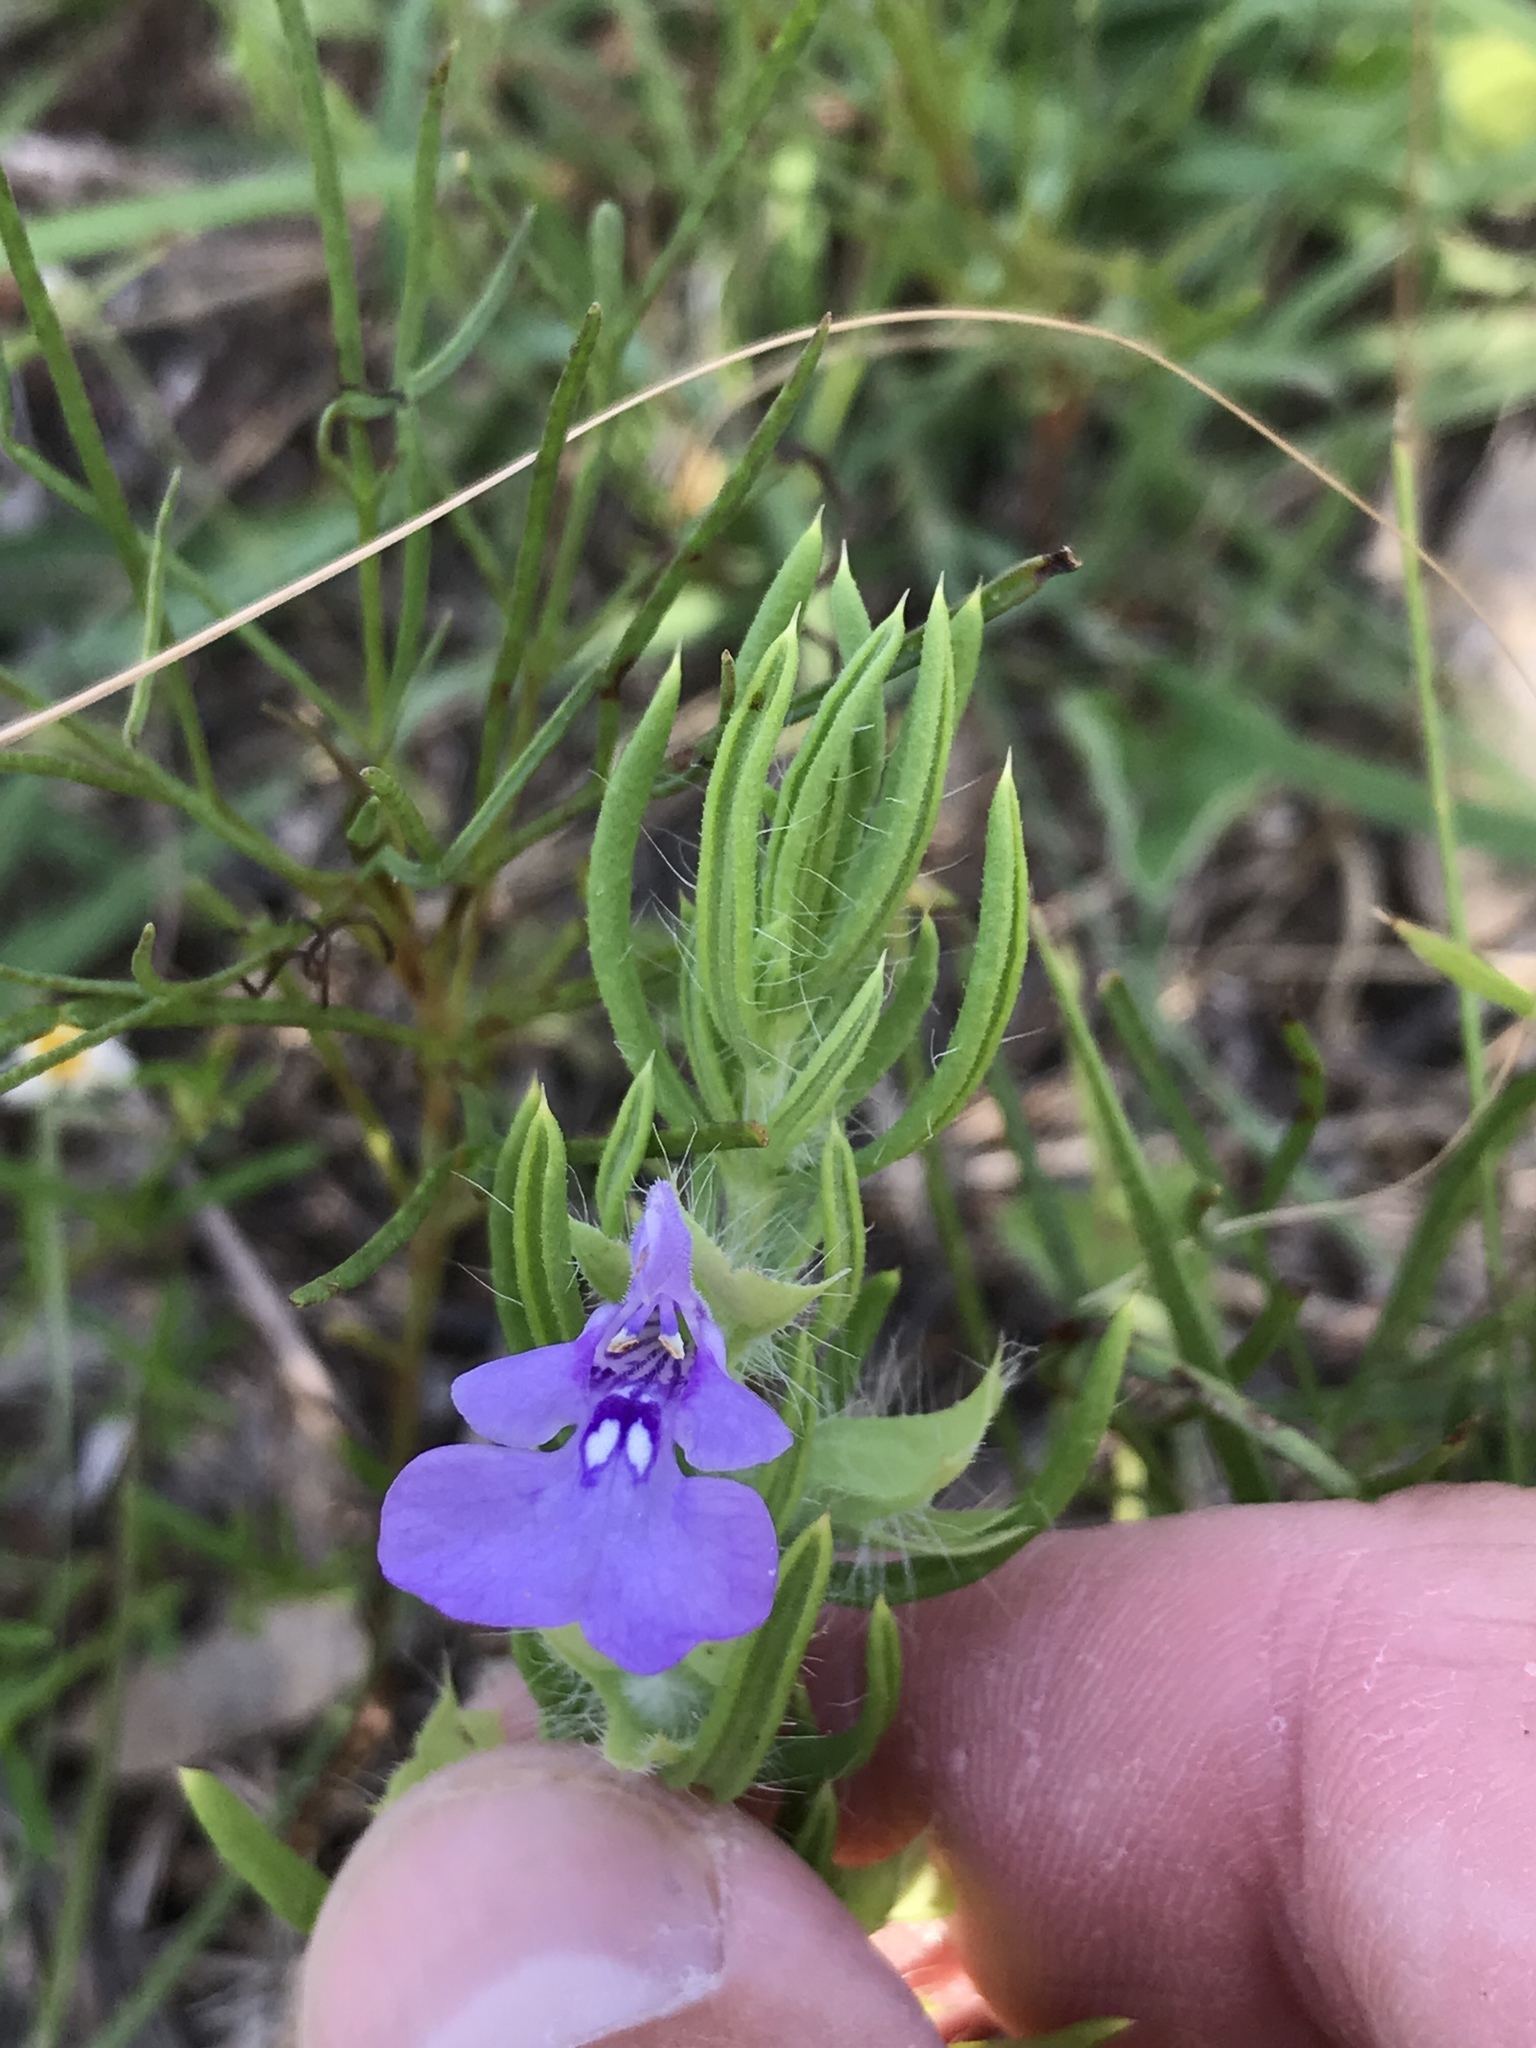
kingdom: Plantae
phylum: Tracheophyta
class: Magnoliopsida
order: Lamiales
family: Lamiaceae
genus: Salvia
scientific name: Salvia texana
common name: Texas sage
